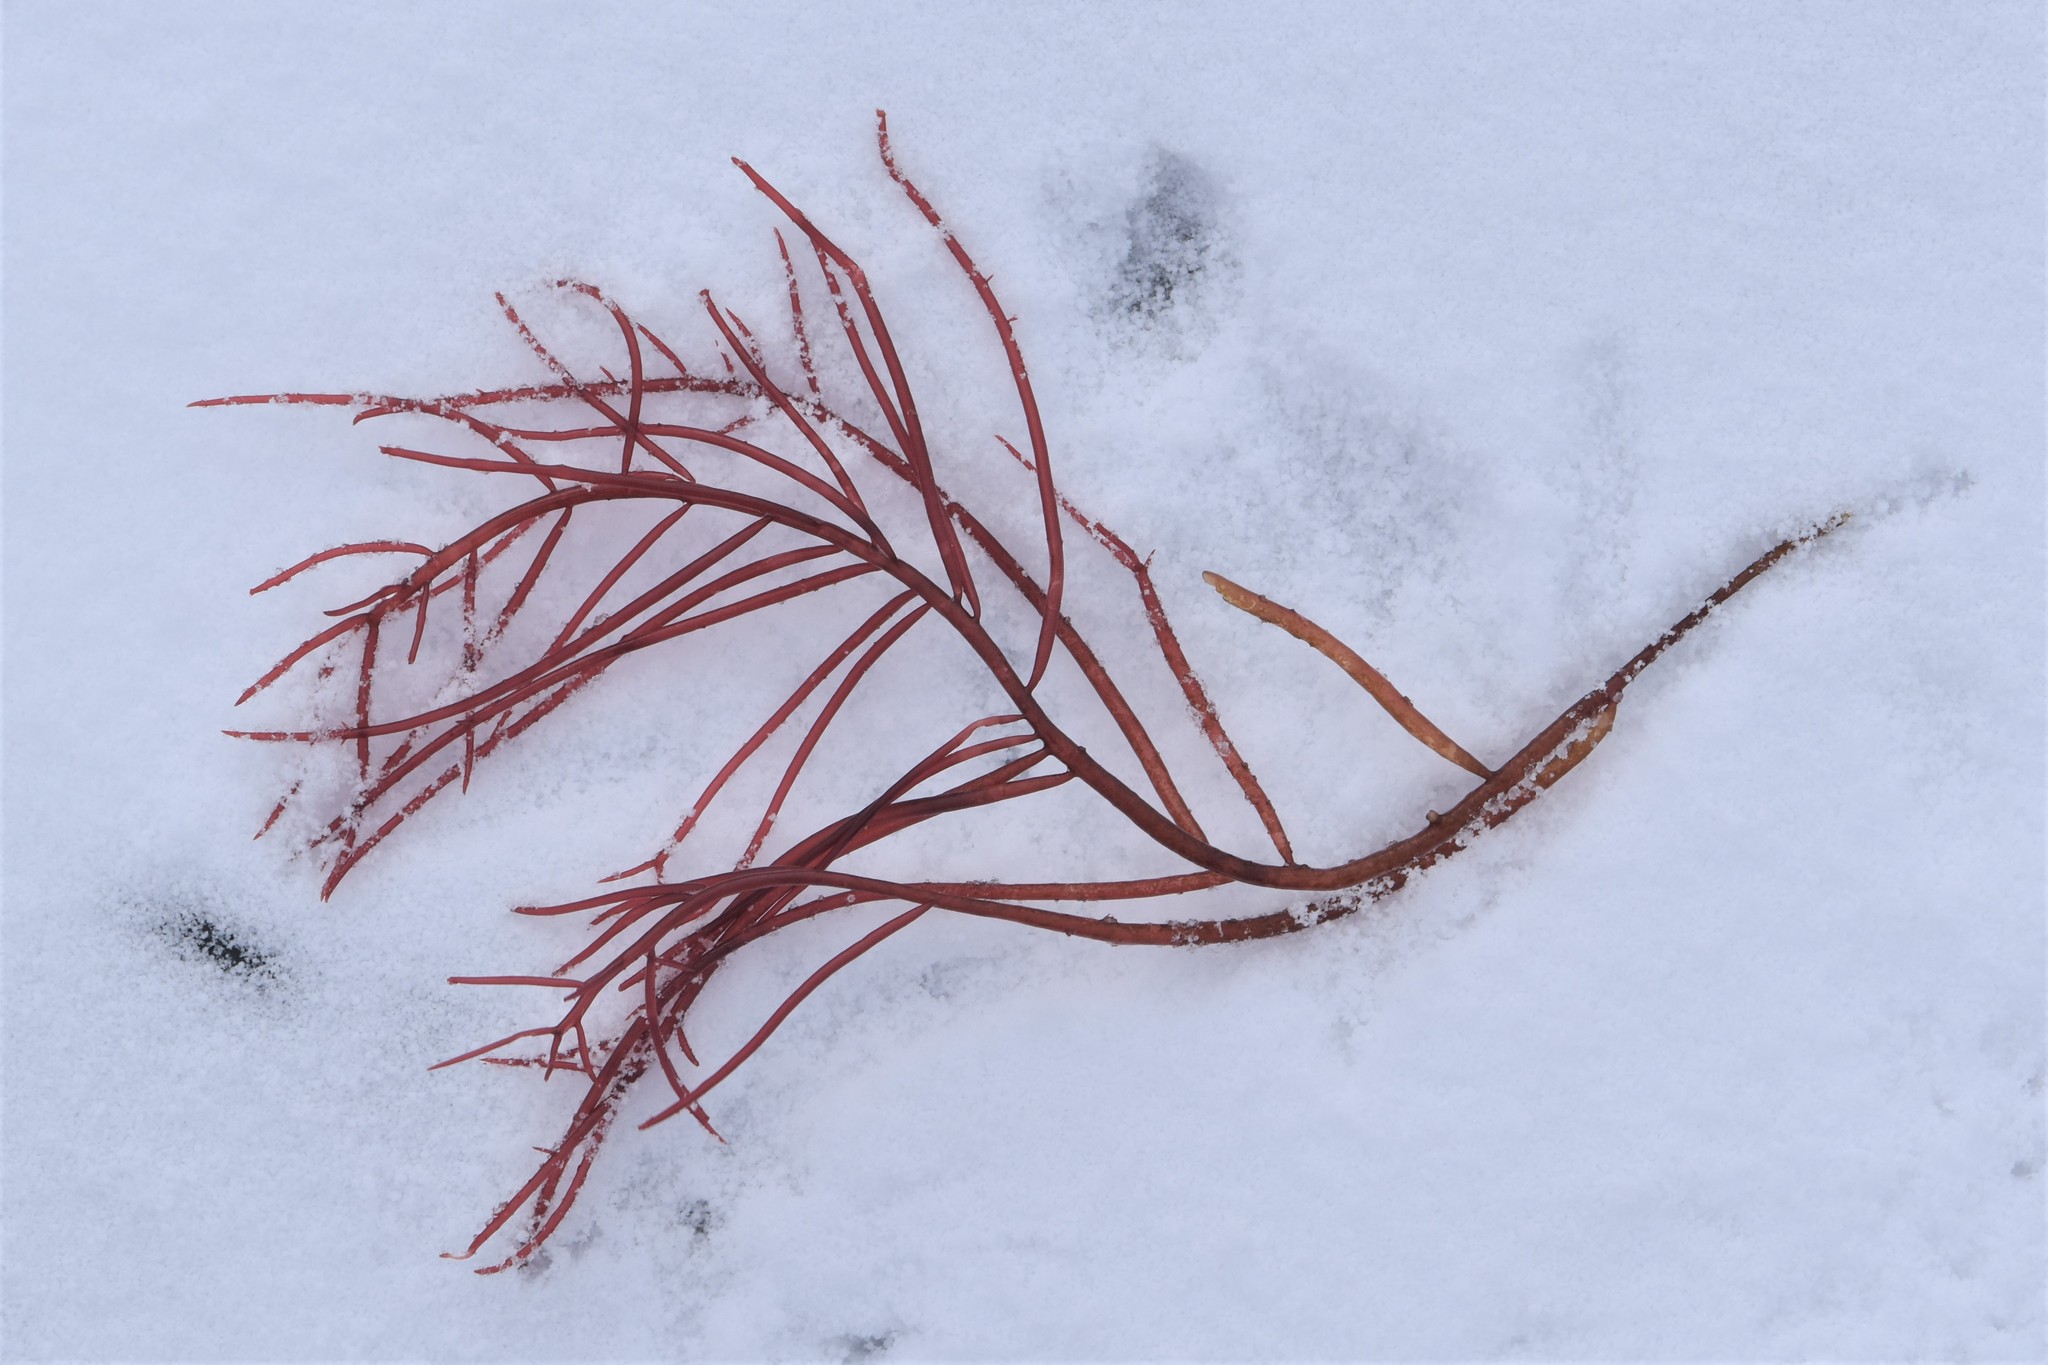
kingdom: Plantae
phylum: Rhodophyta
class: Florideophyceae
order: Gigartinales
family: Solieriaceae
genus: Sarcodiotheca
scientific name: Sarcodiotheca gaudichaudii
